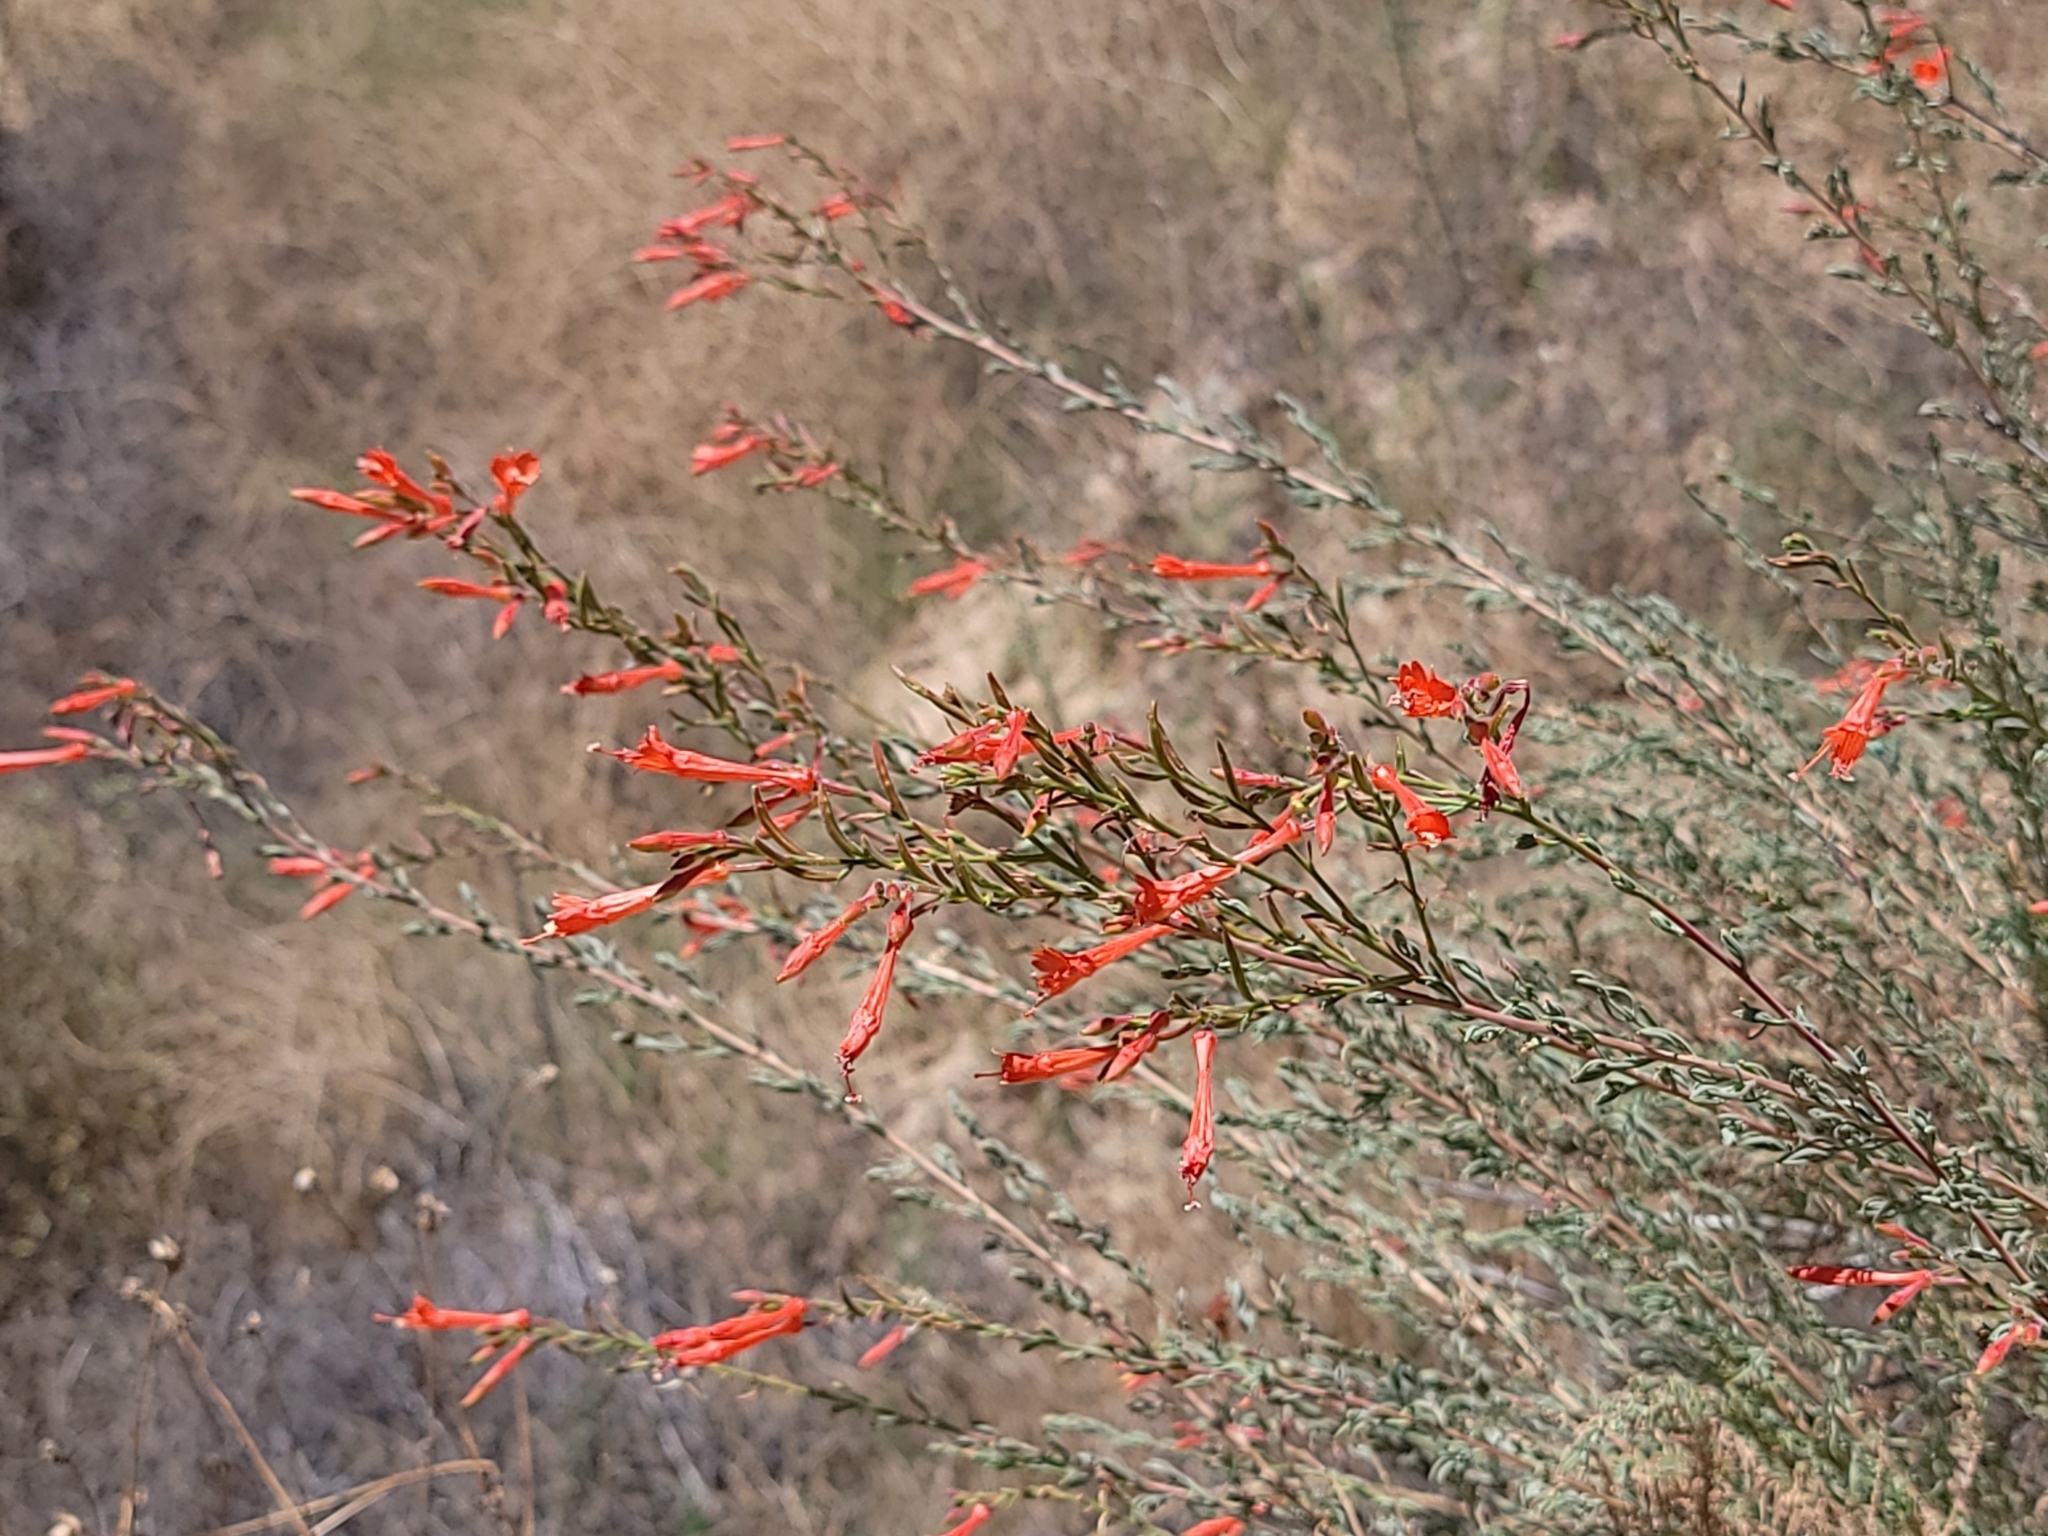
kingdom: Plantae
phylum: Tracheophyta
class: Magnoliopsida
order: Myrtales
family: Onagraceae
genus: Epilobium
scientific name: Epilobium canum
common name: California-fuchsia
